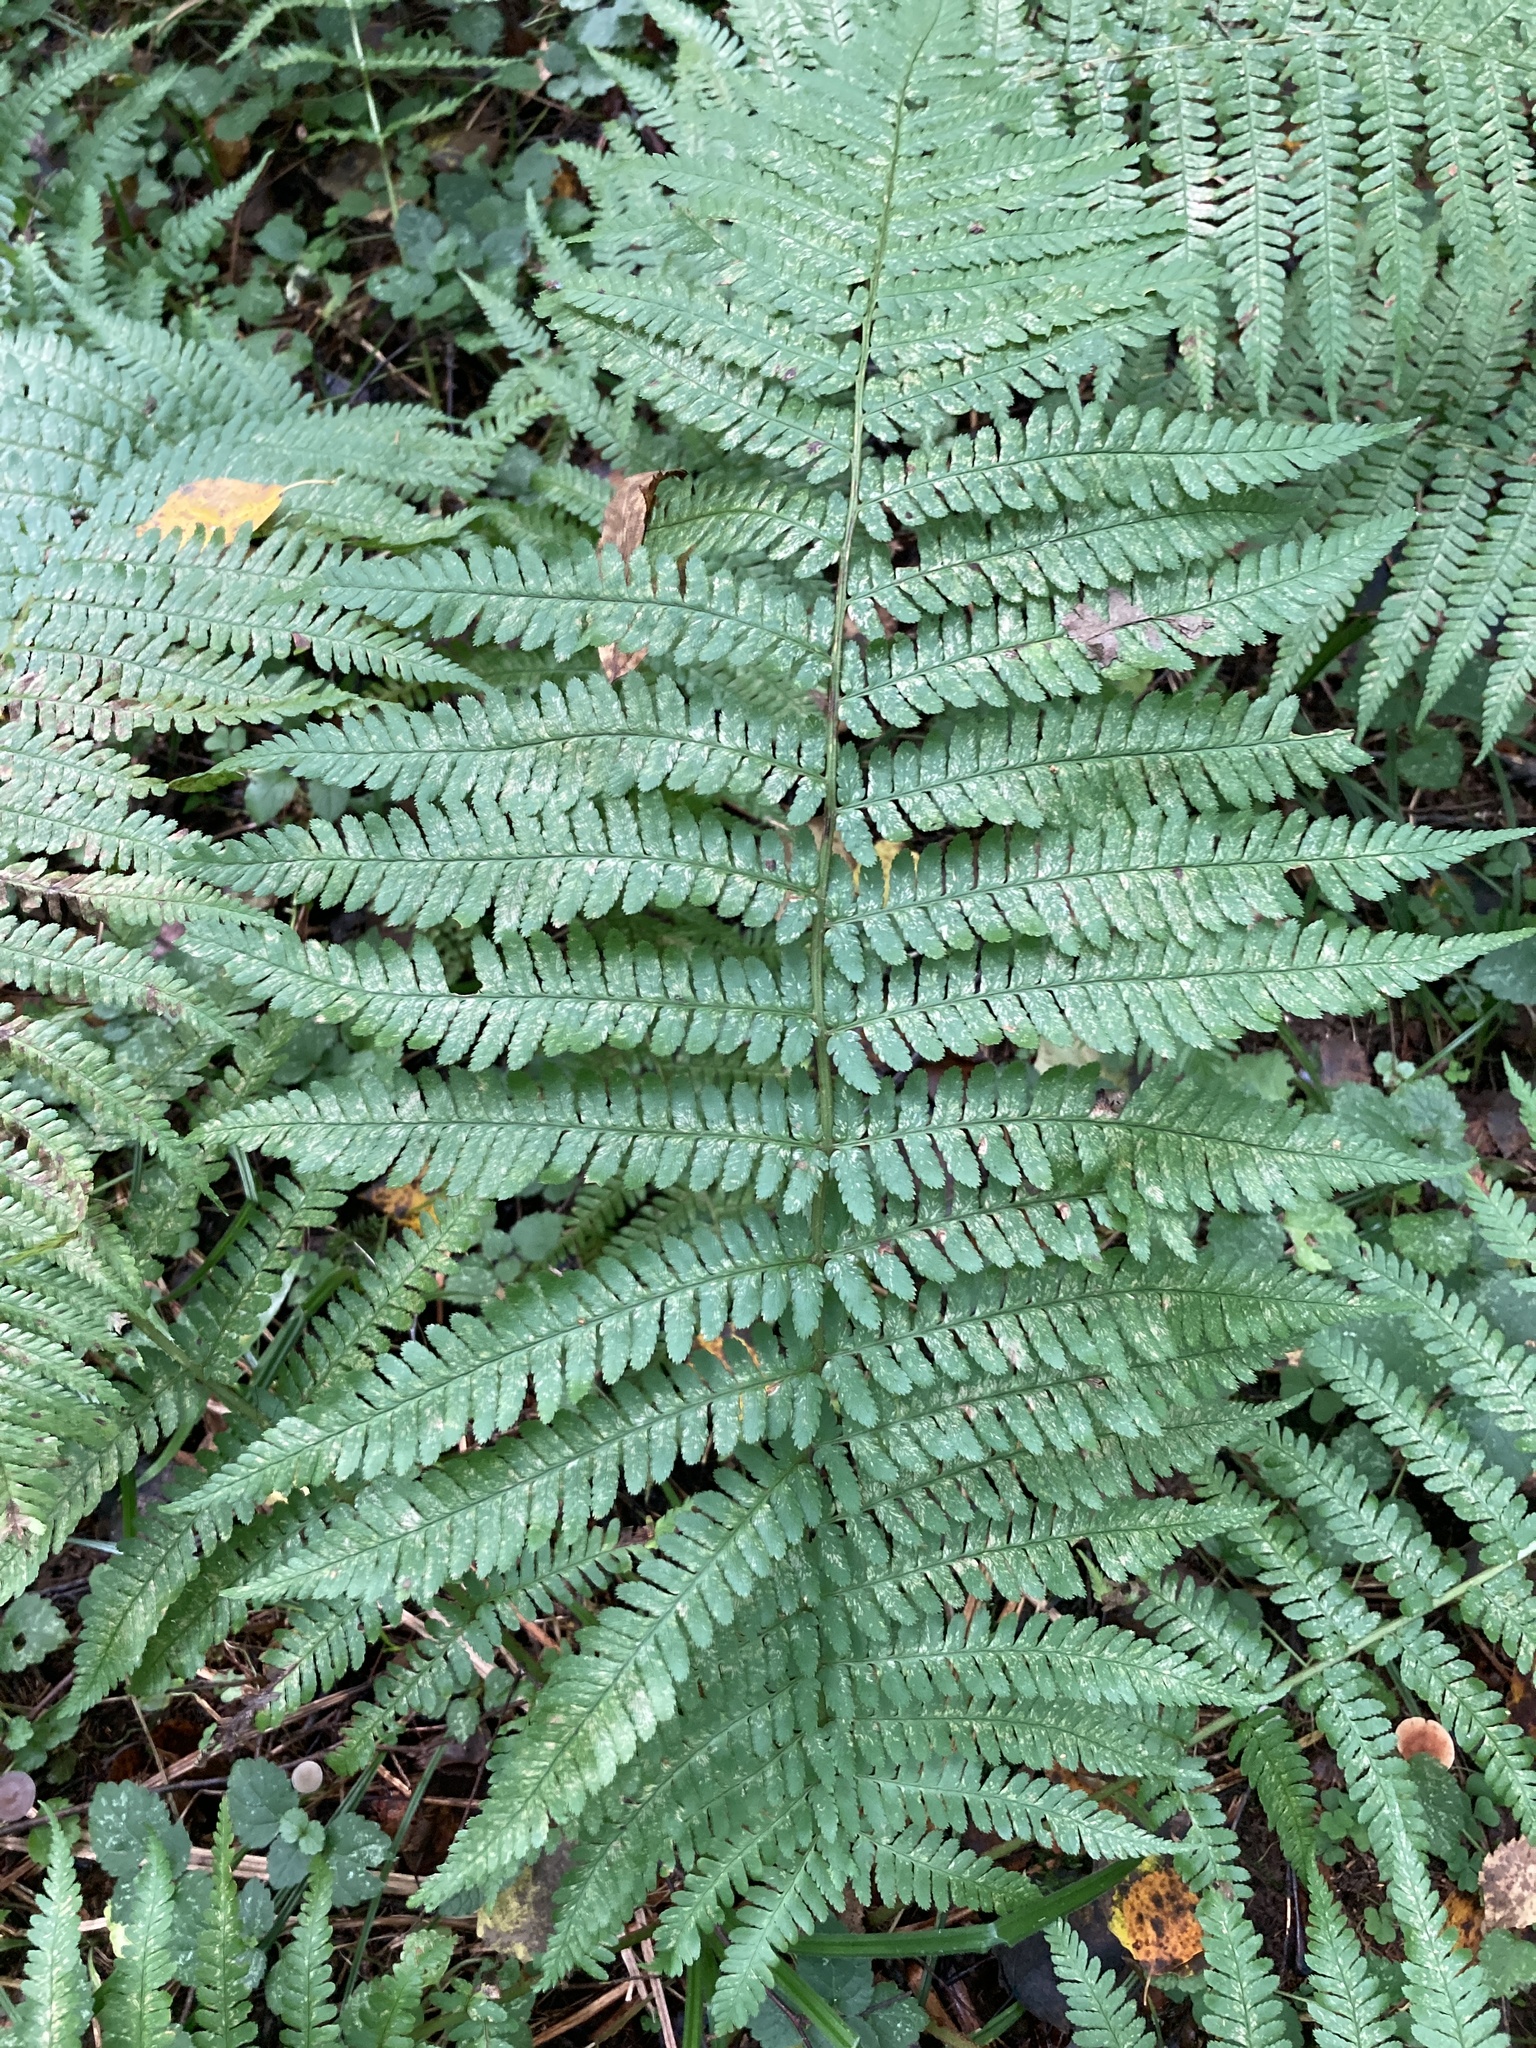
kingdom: Plantae
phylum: Tracheophyta
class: Polypodiopsida
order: Polypodiales
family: Dryopteridaceae
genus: Dryopteris
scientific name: Dryopteris filix-mas
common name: Male fern
